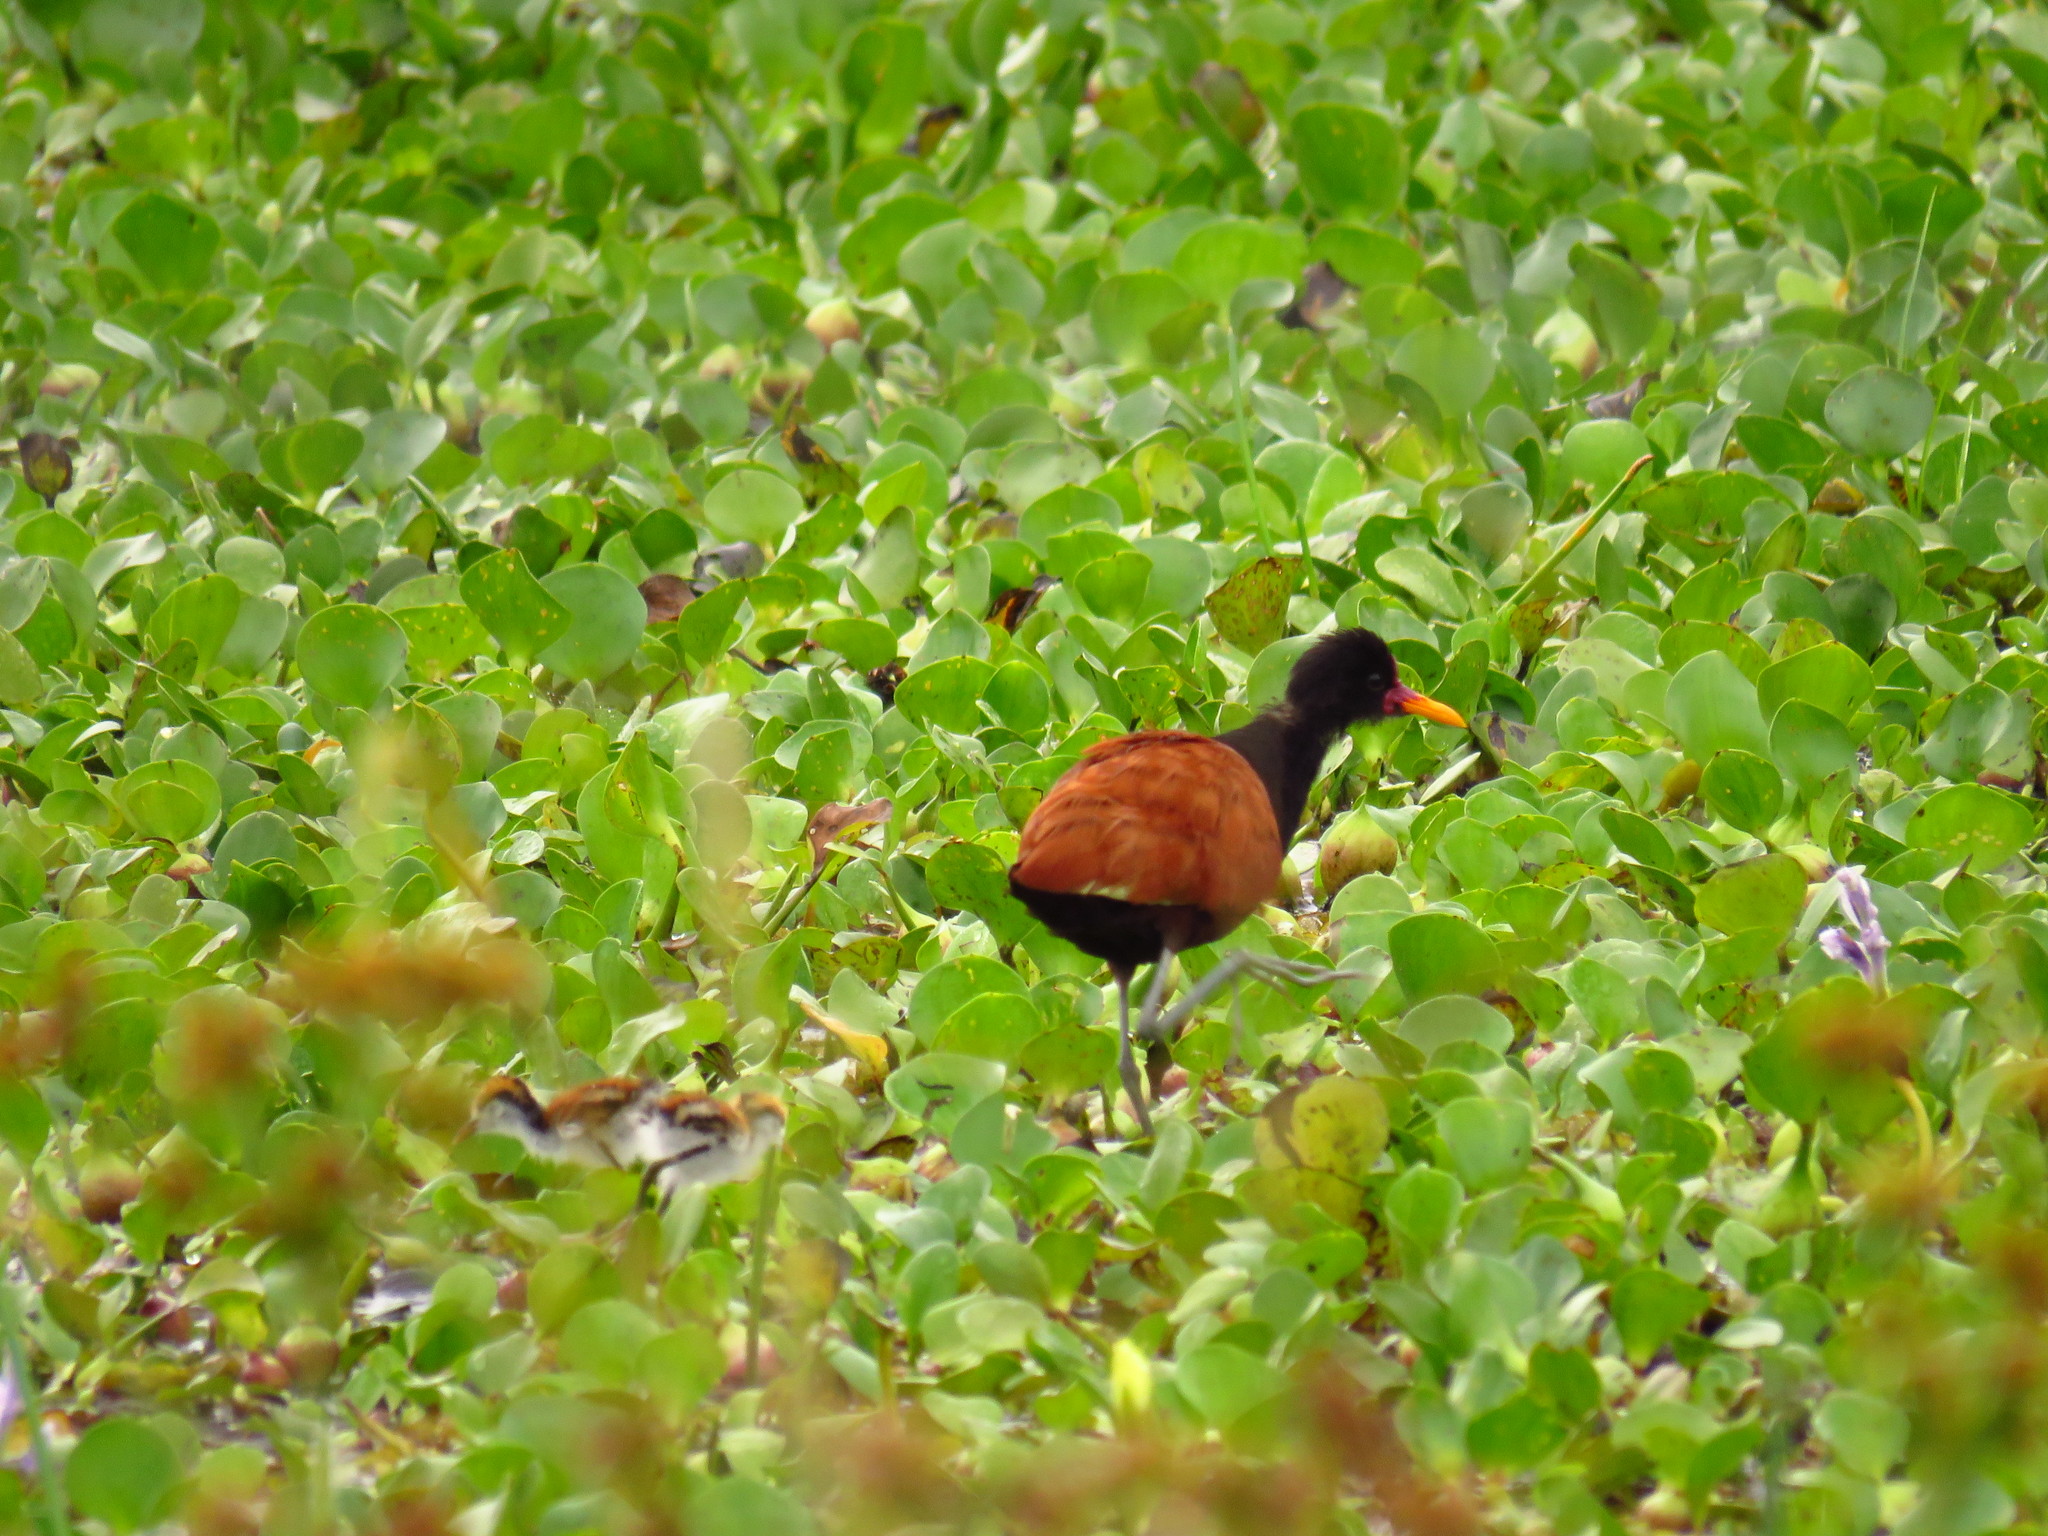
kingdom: Animalia
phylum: Chordata
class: Aves
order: Charadriiformes
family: Jacanidae
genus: Jacana
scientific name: Jacana jacana
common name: Wattled jacana
